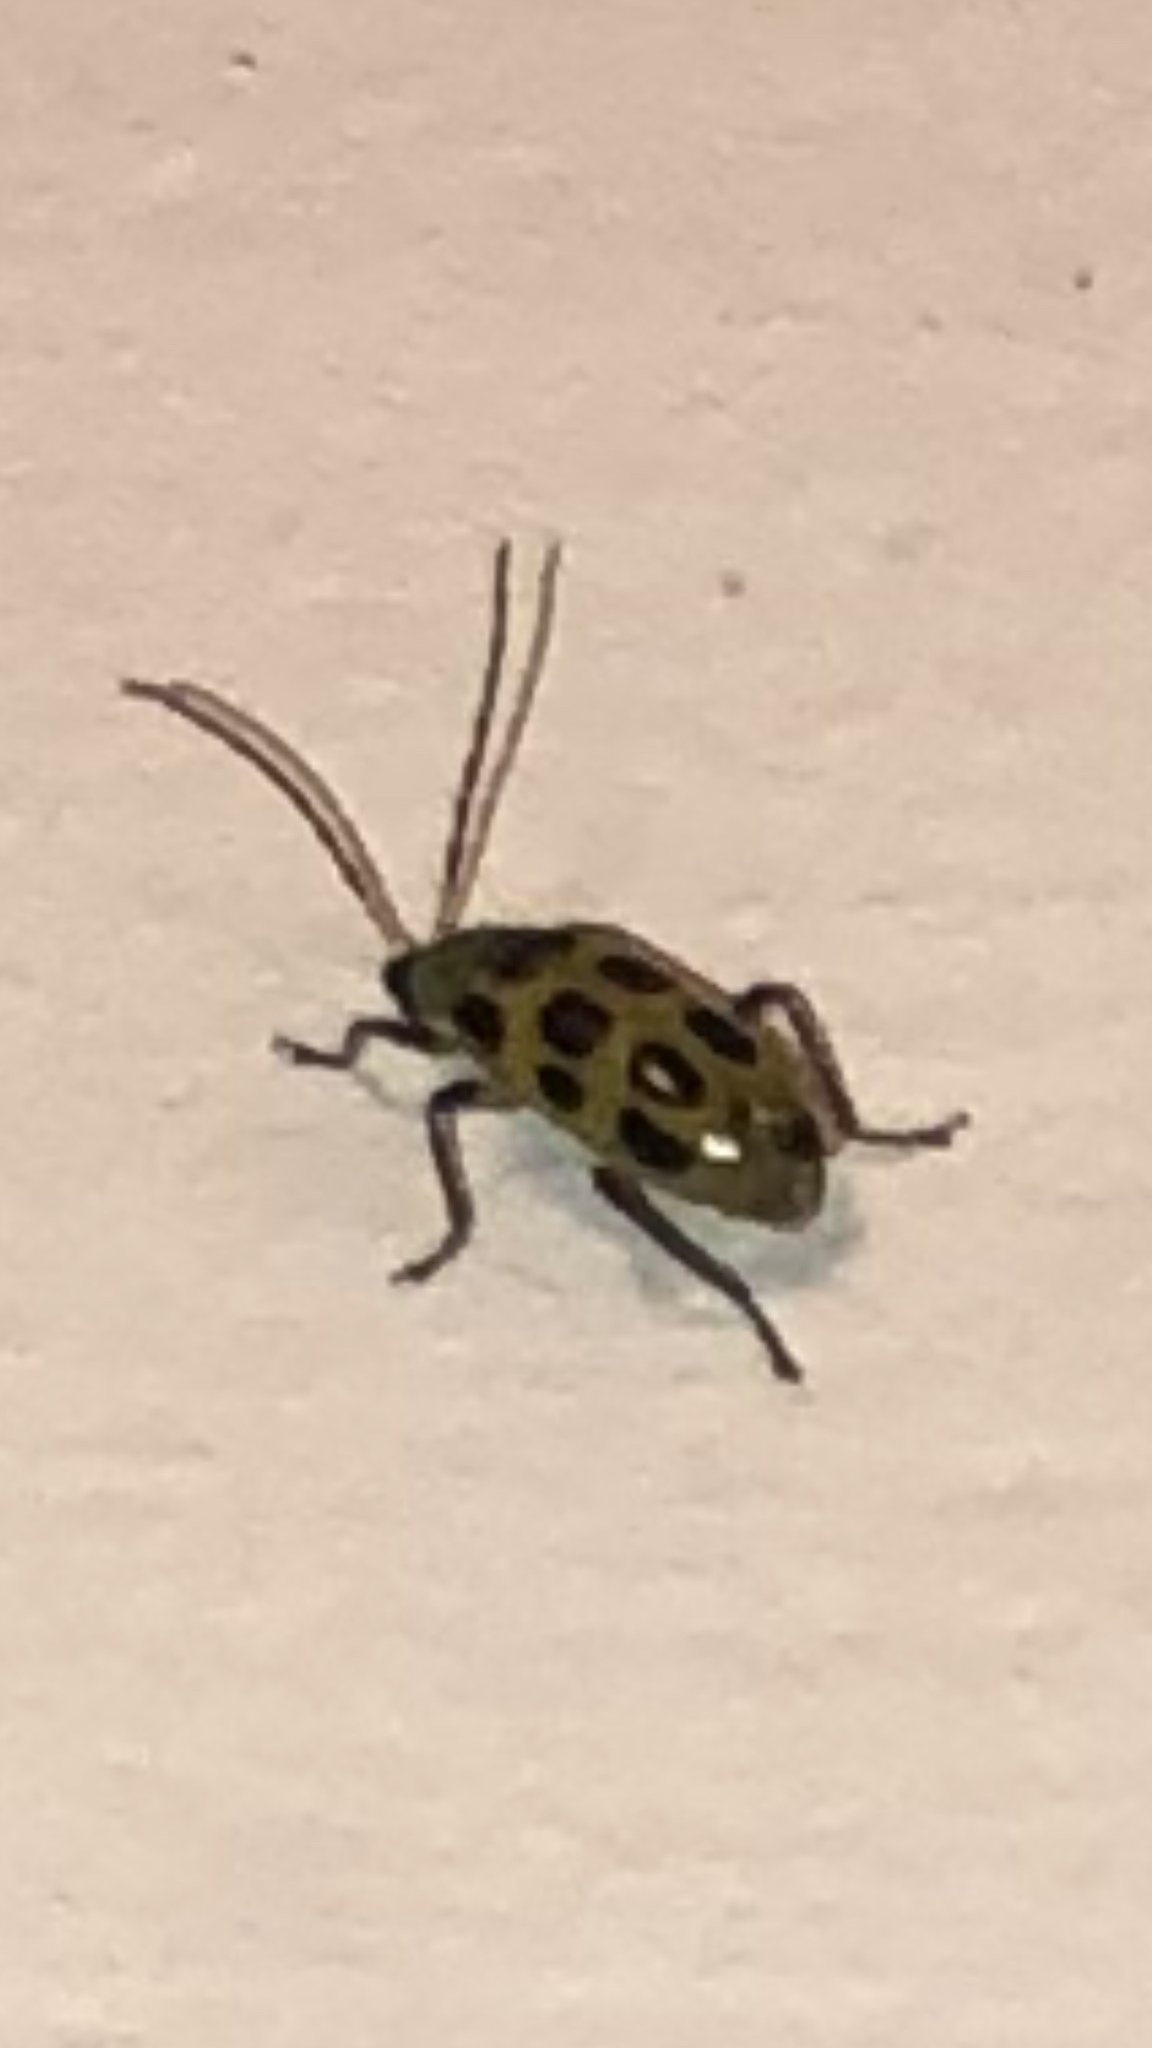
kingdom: Animalia
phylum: Arthropoda
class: Insecta
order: Coleoptera
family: Chrysomelidae
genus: Diabrotica
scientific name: Diabrotica undecimpunctata
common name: Spotted cucumber beetle
